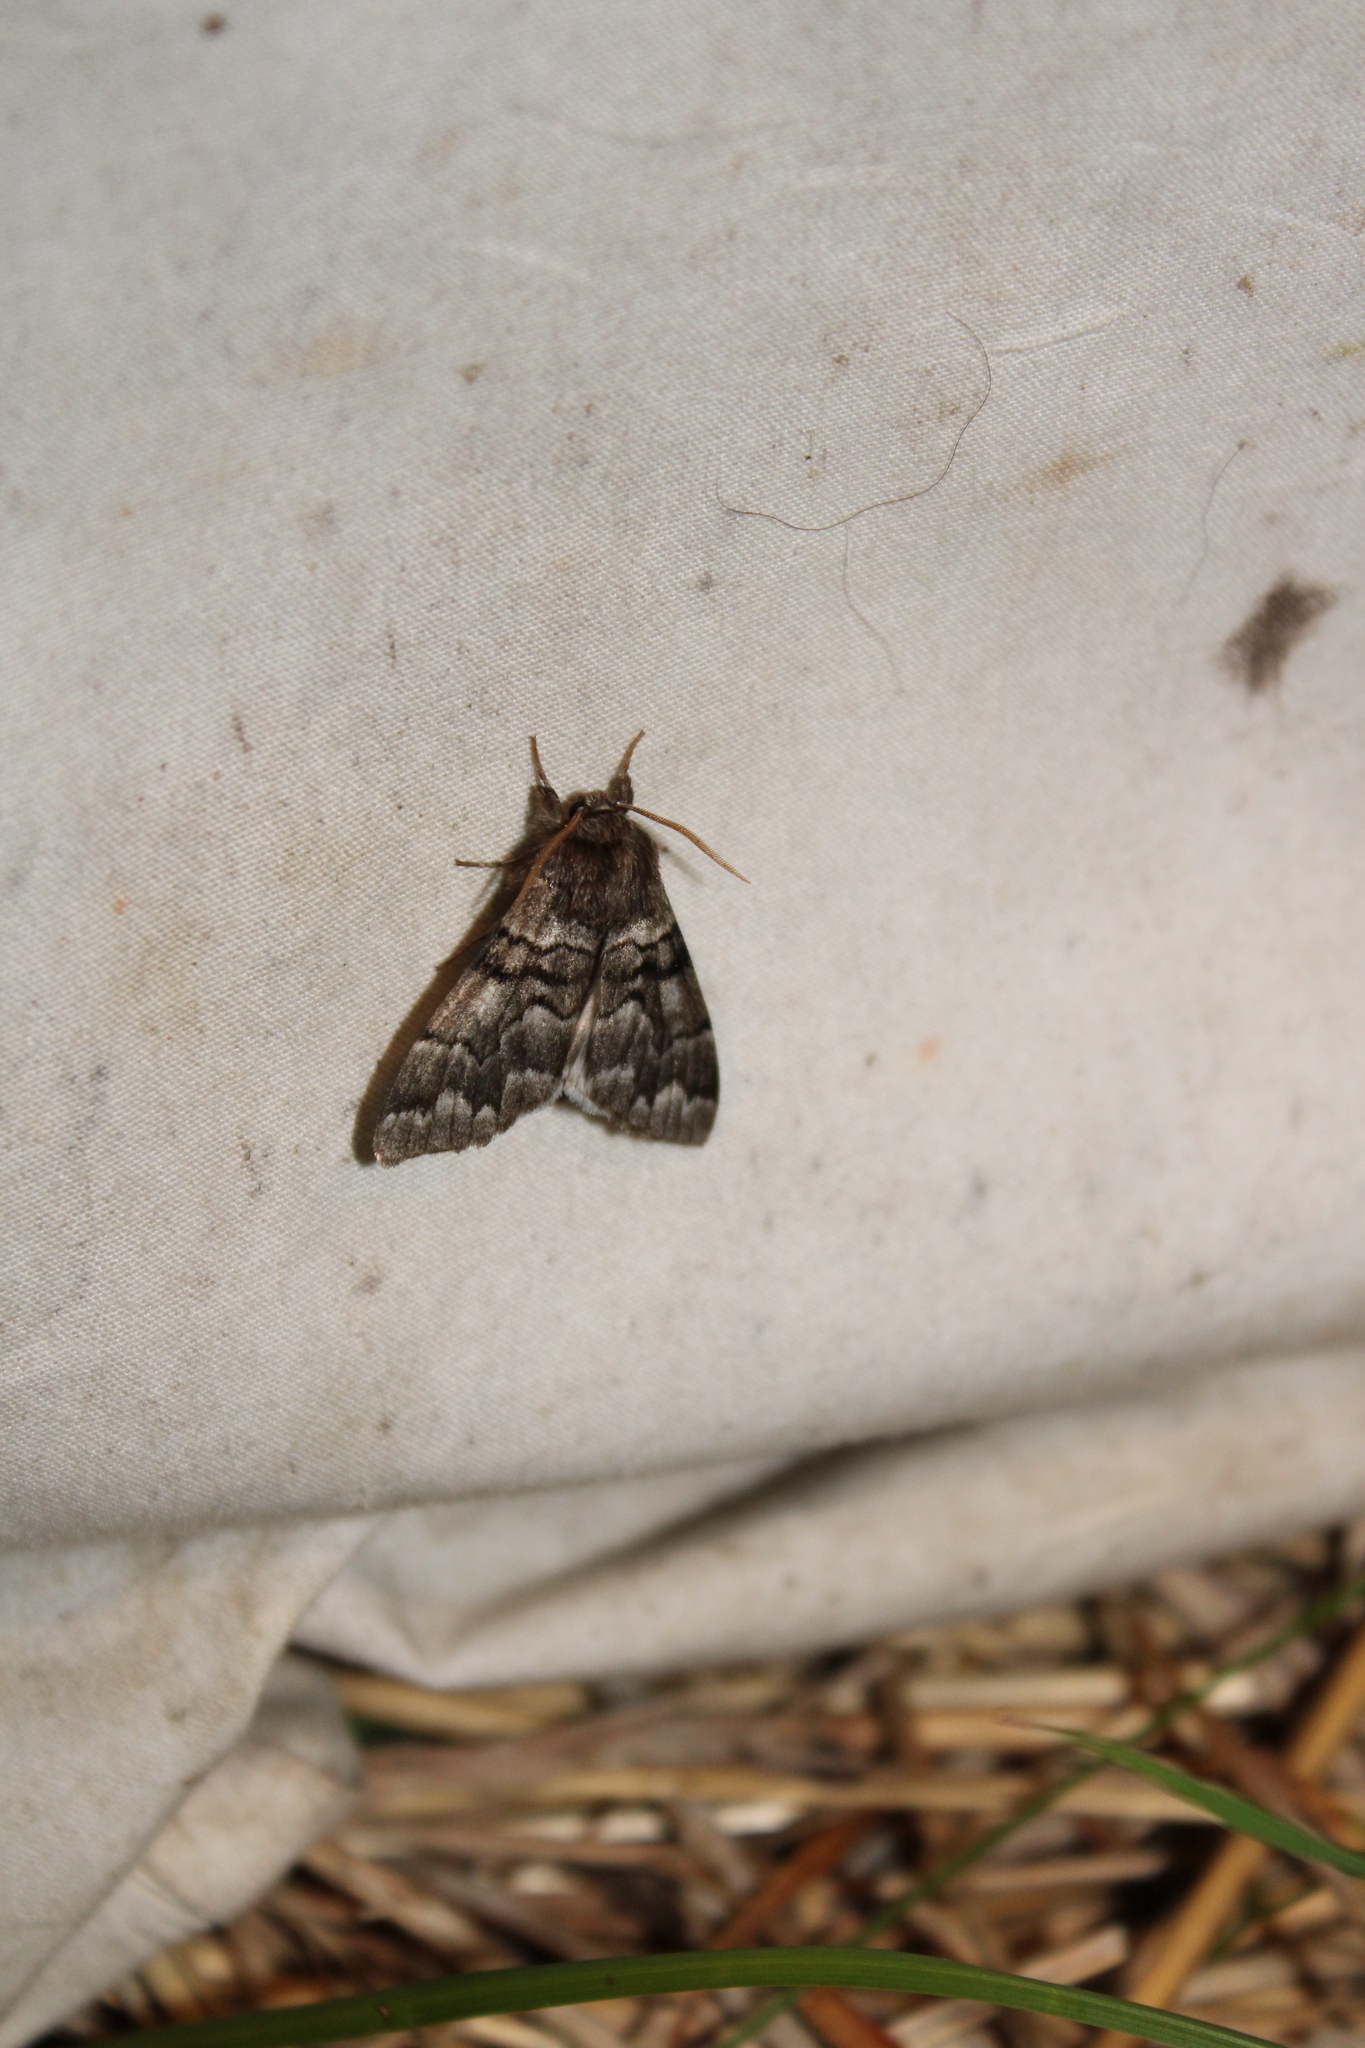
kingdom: Animalia
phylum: Arthropoda
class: Insecta
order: Lepidoptera
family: Noctuidae
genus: Panthea
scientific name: Panthea furcilla
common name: Eastern panthea moth
